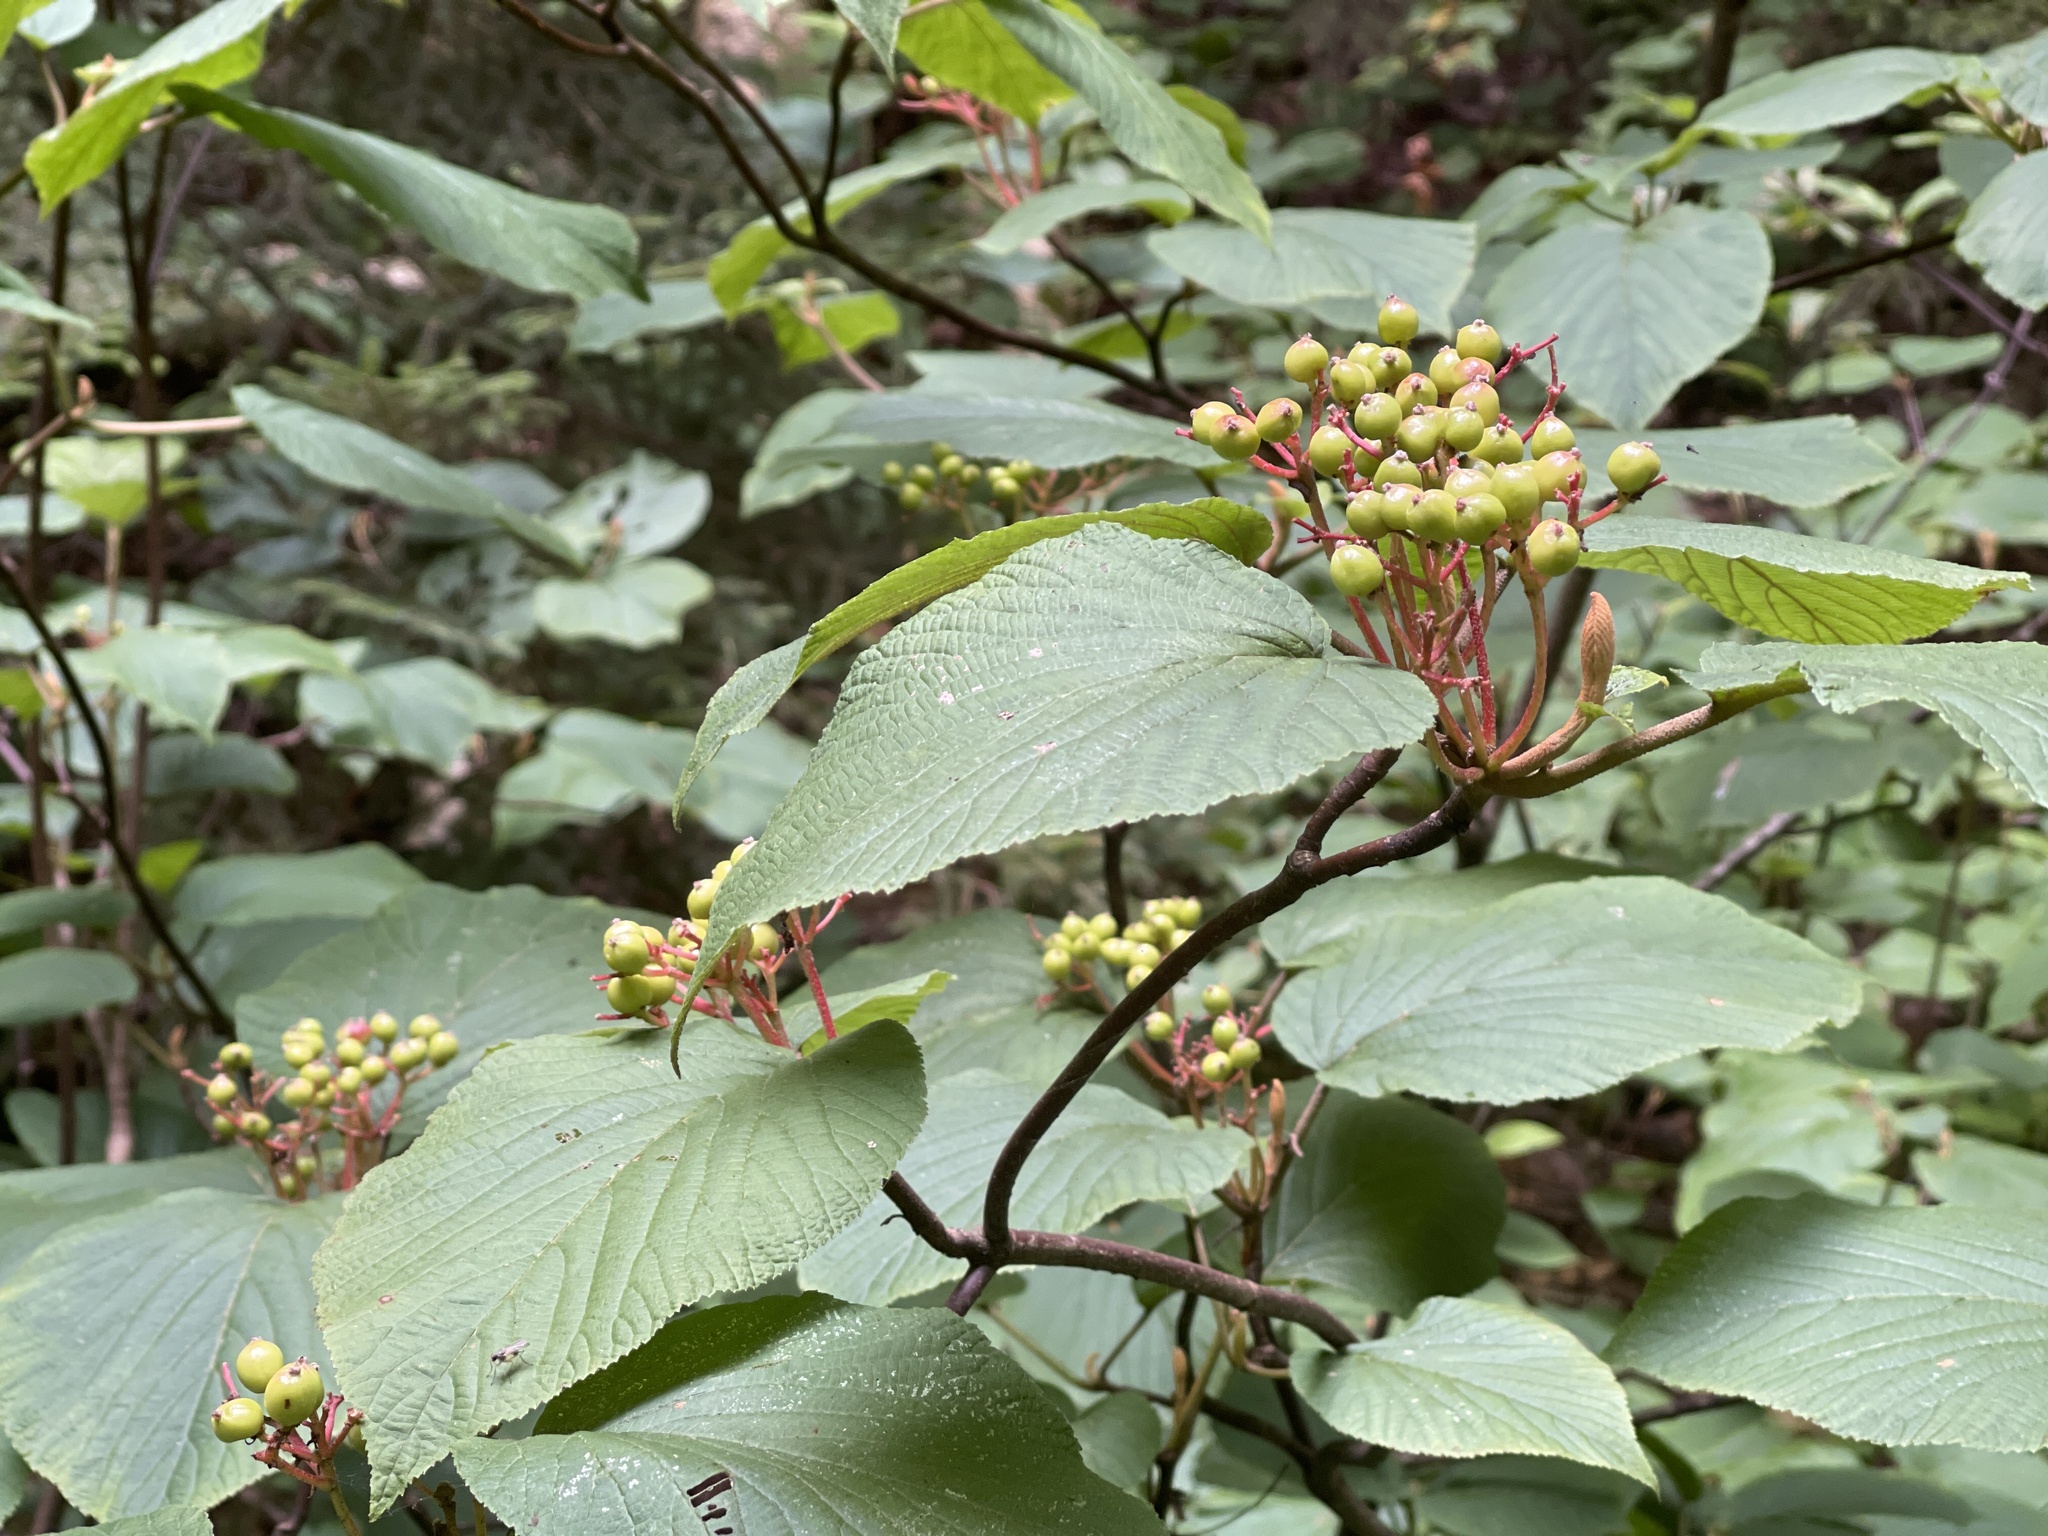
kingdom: Plantae
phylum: Tracheophyta
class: Magnoliopsida
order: Dipsacales
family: Viburnaceae
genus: Viburnum
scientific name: Viburnum lantanoides
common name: Hobblebush
